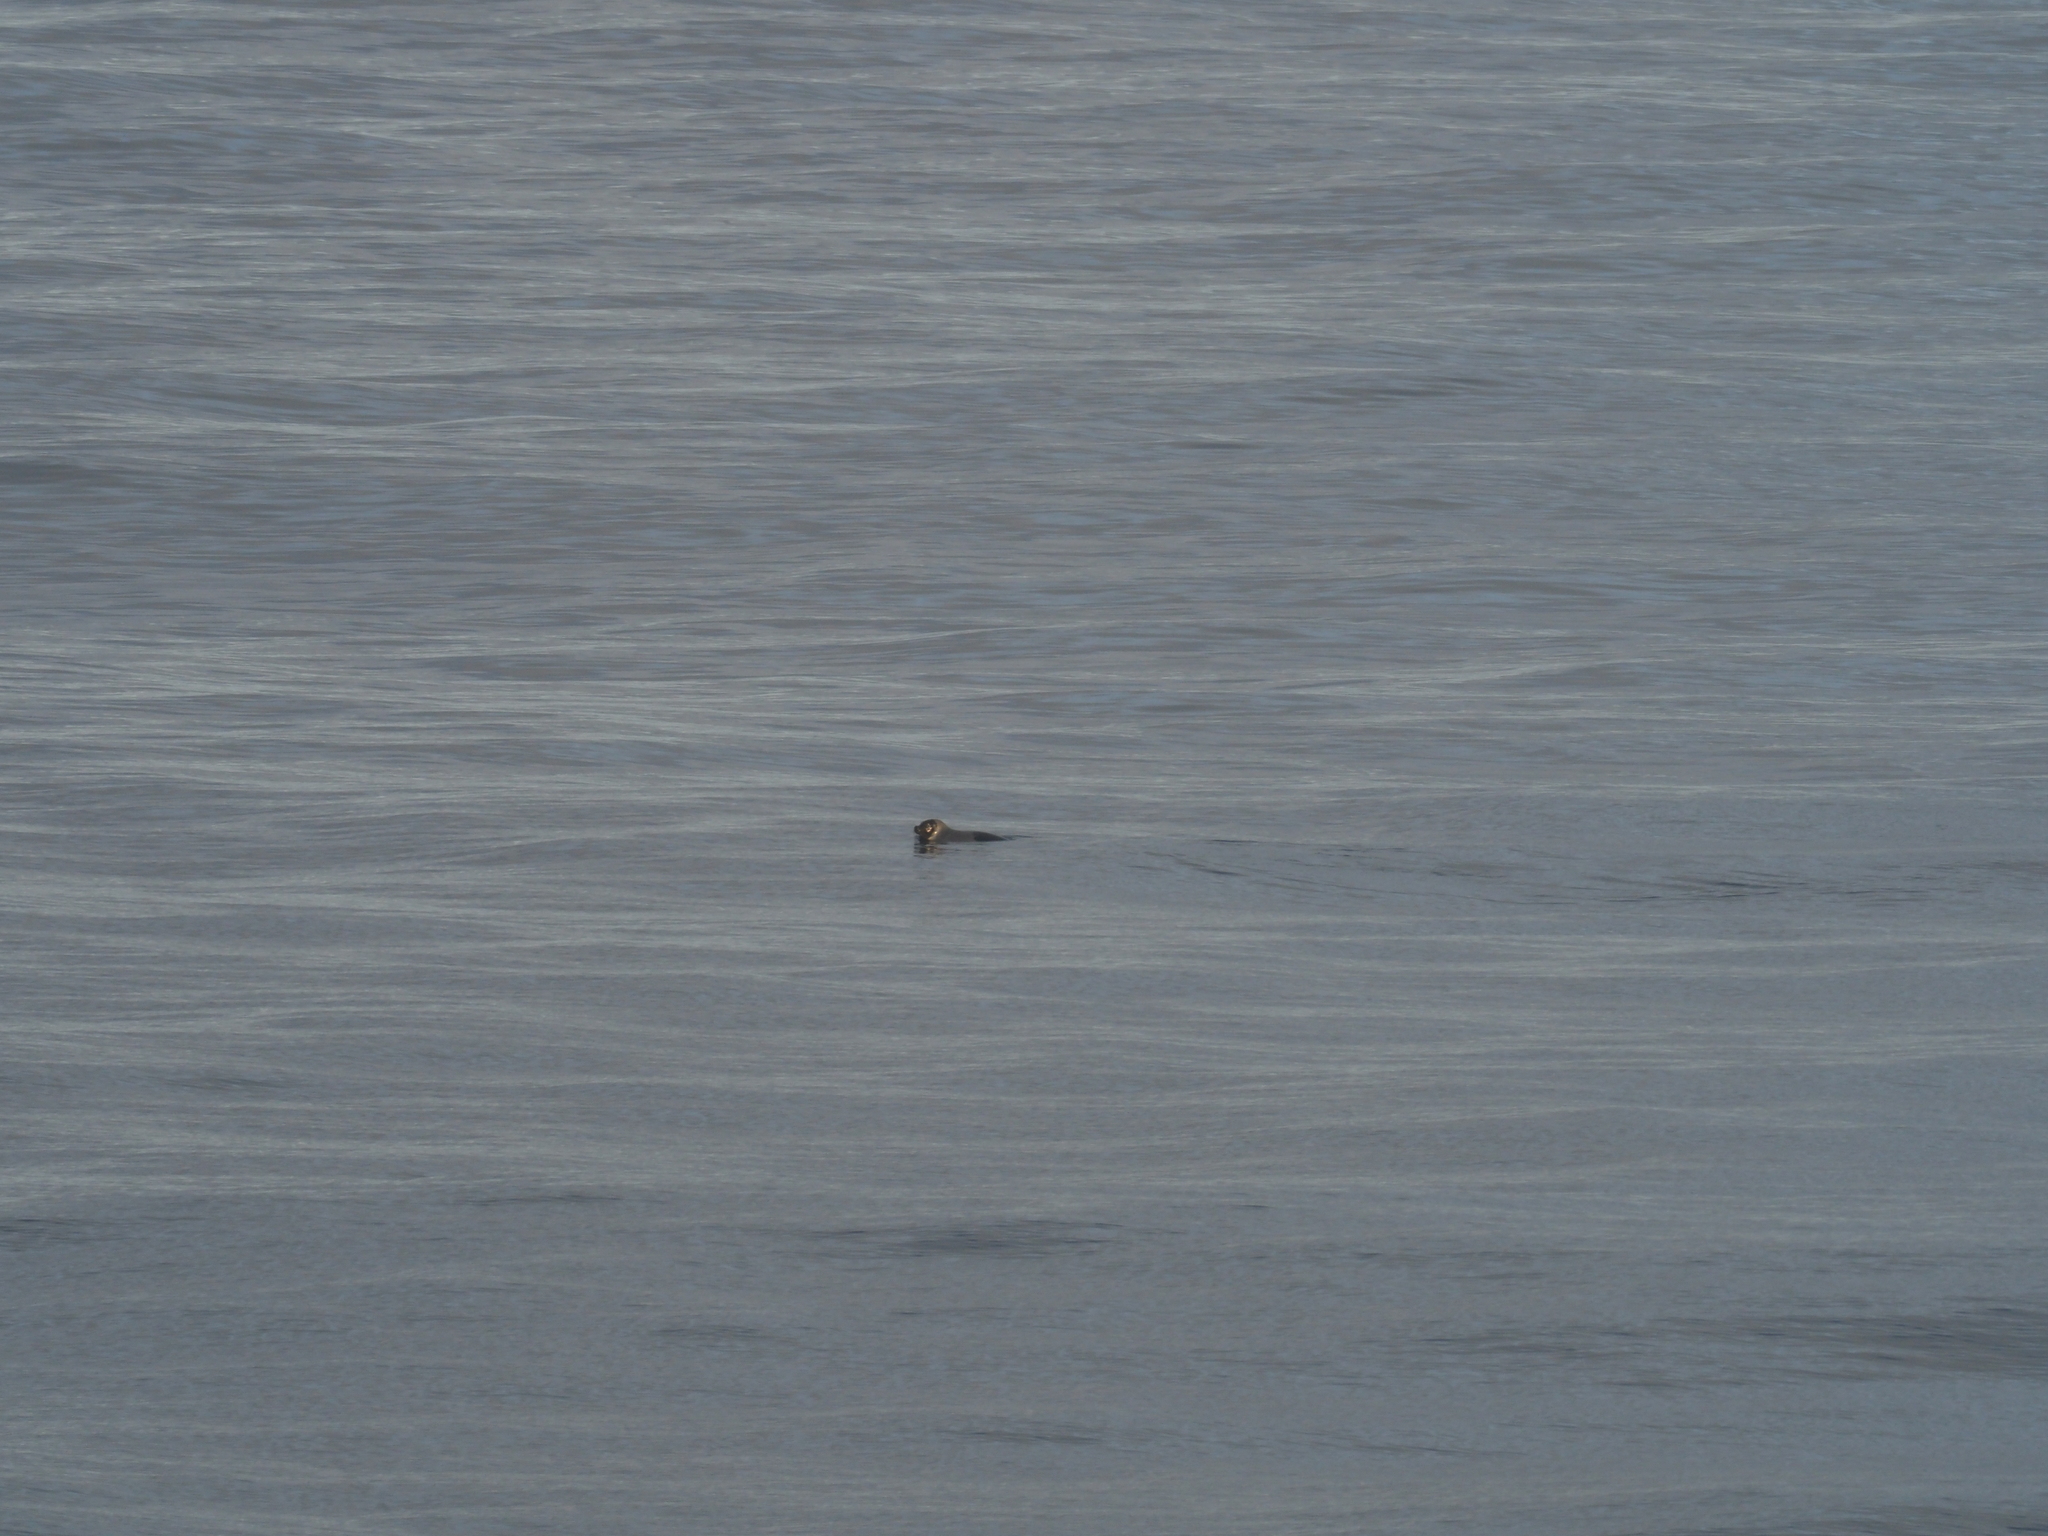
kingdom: Animalia
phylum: Chordata
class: Mammalia
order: Carnivora
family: Phocidae
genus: Pagophilus
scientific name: Pagophilus groenlandicus
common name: Harp seal
